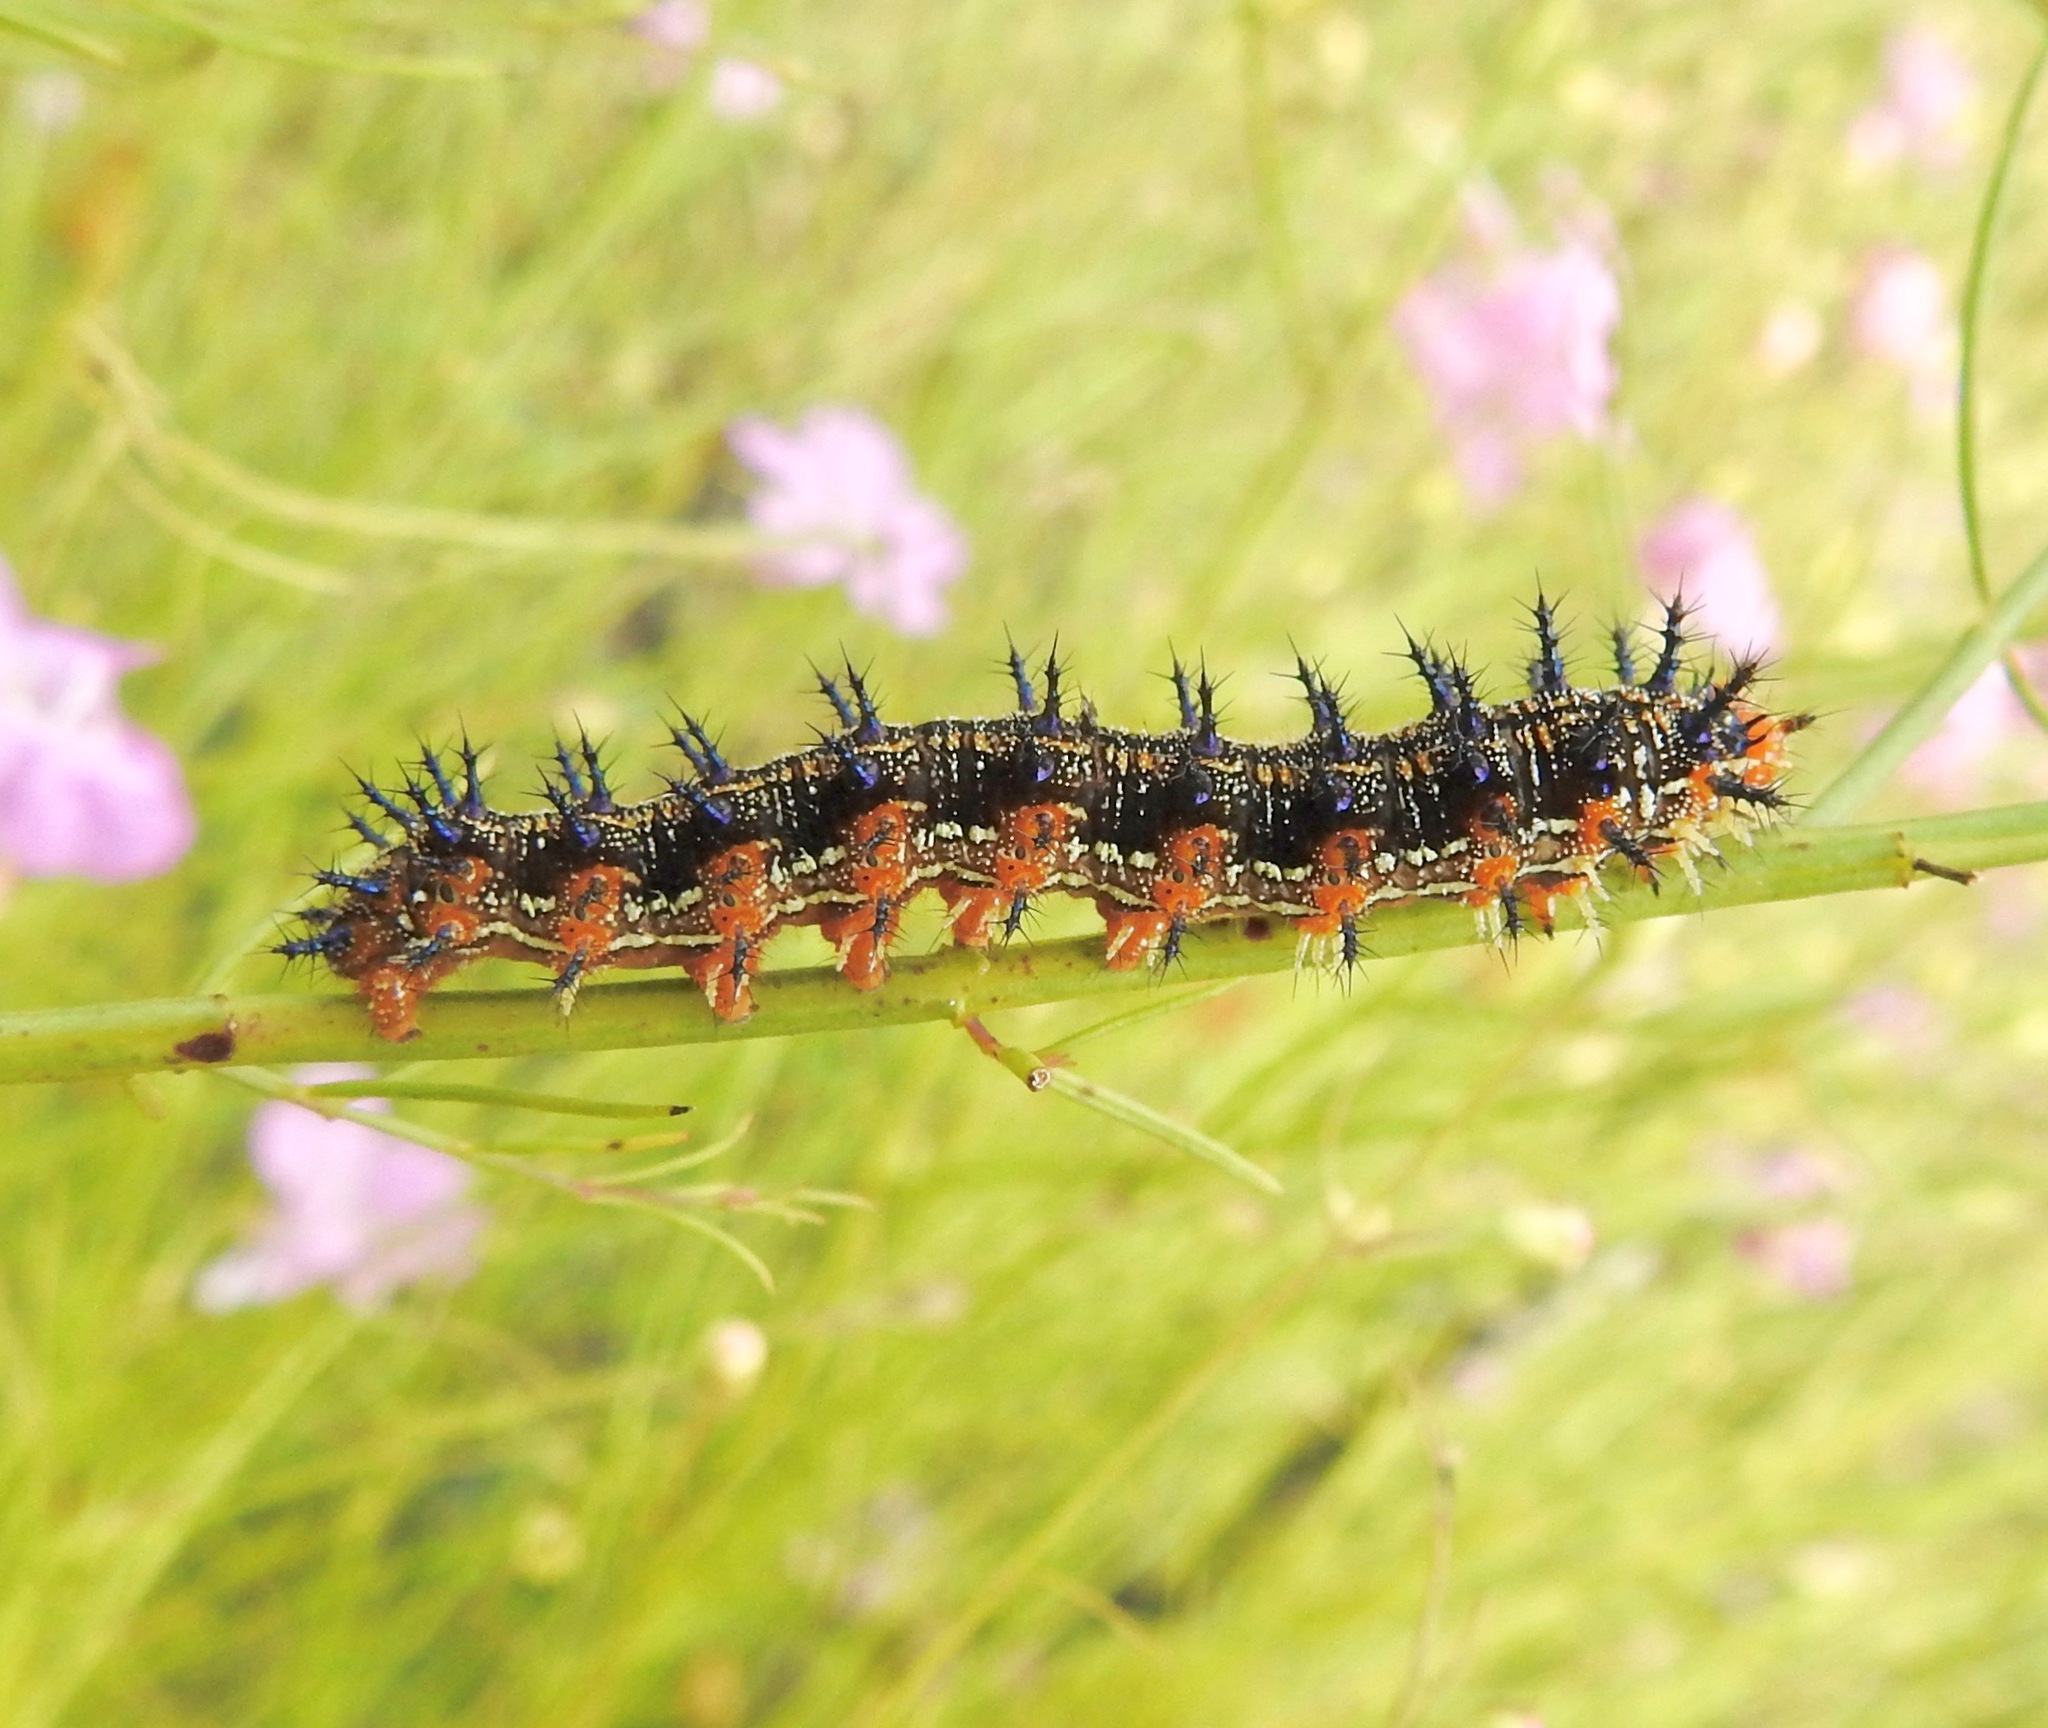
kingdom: Animalia
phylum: Arthropoda
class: Insecta
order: Lepidoptera
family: Nymphalidae
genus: Junonia
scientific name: Junonia coenia
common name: Common buckeye
